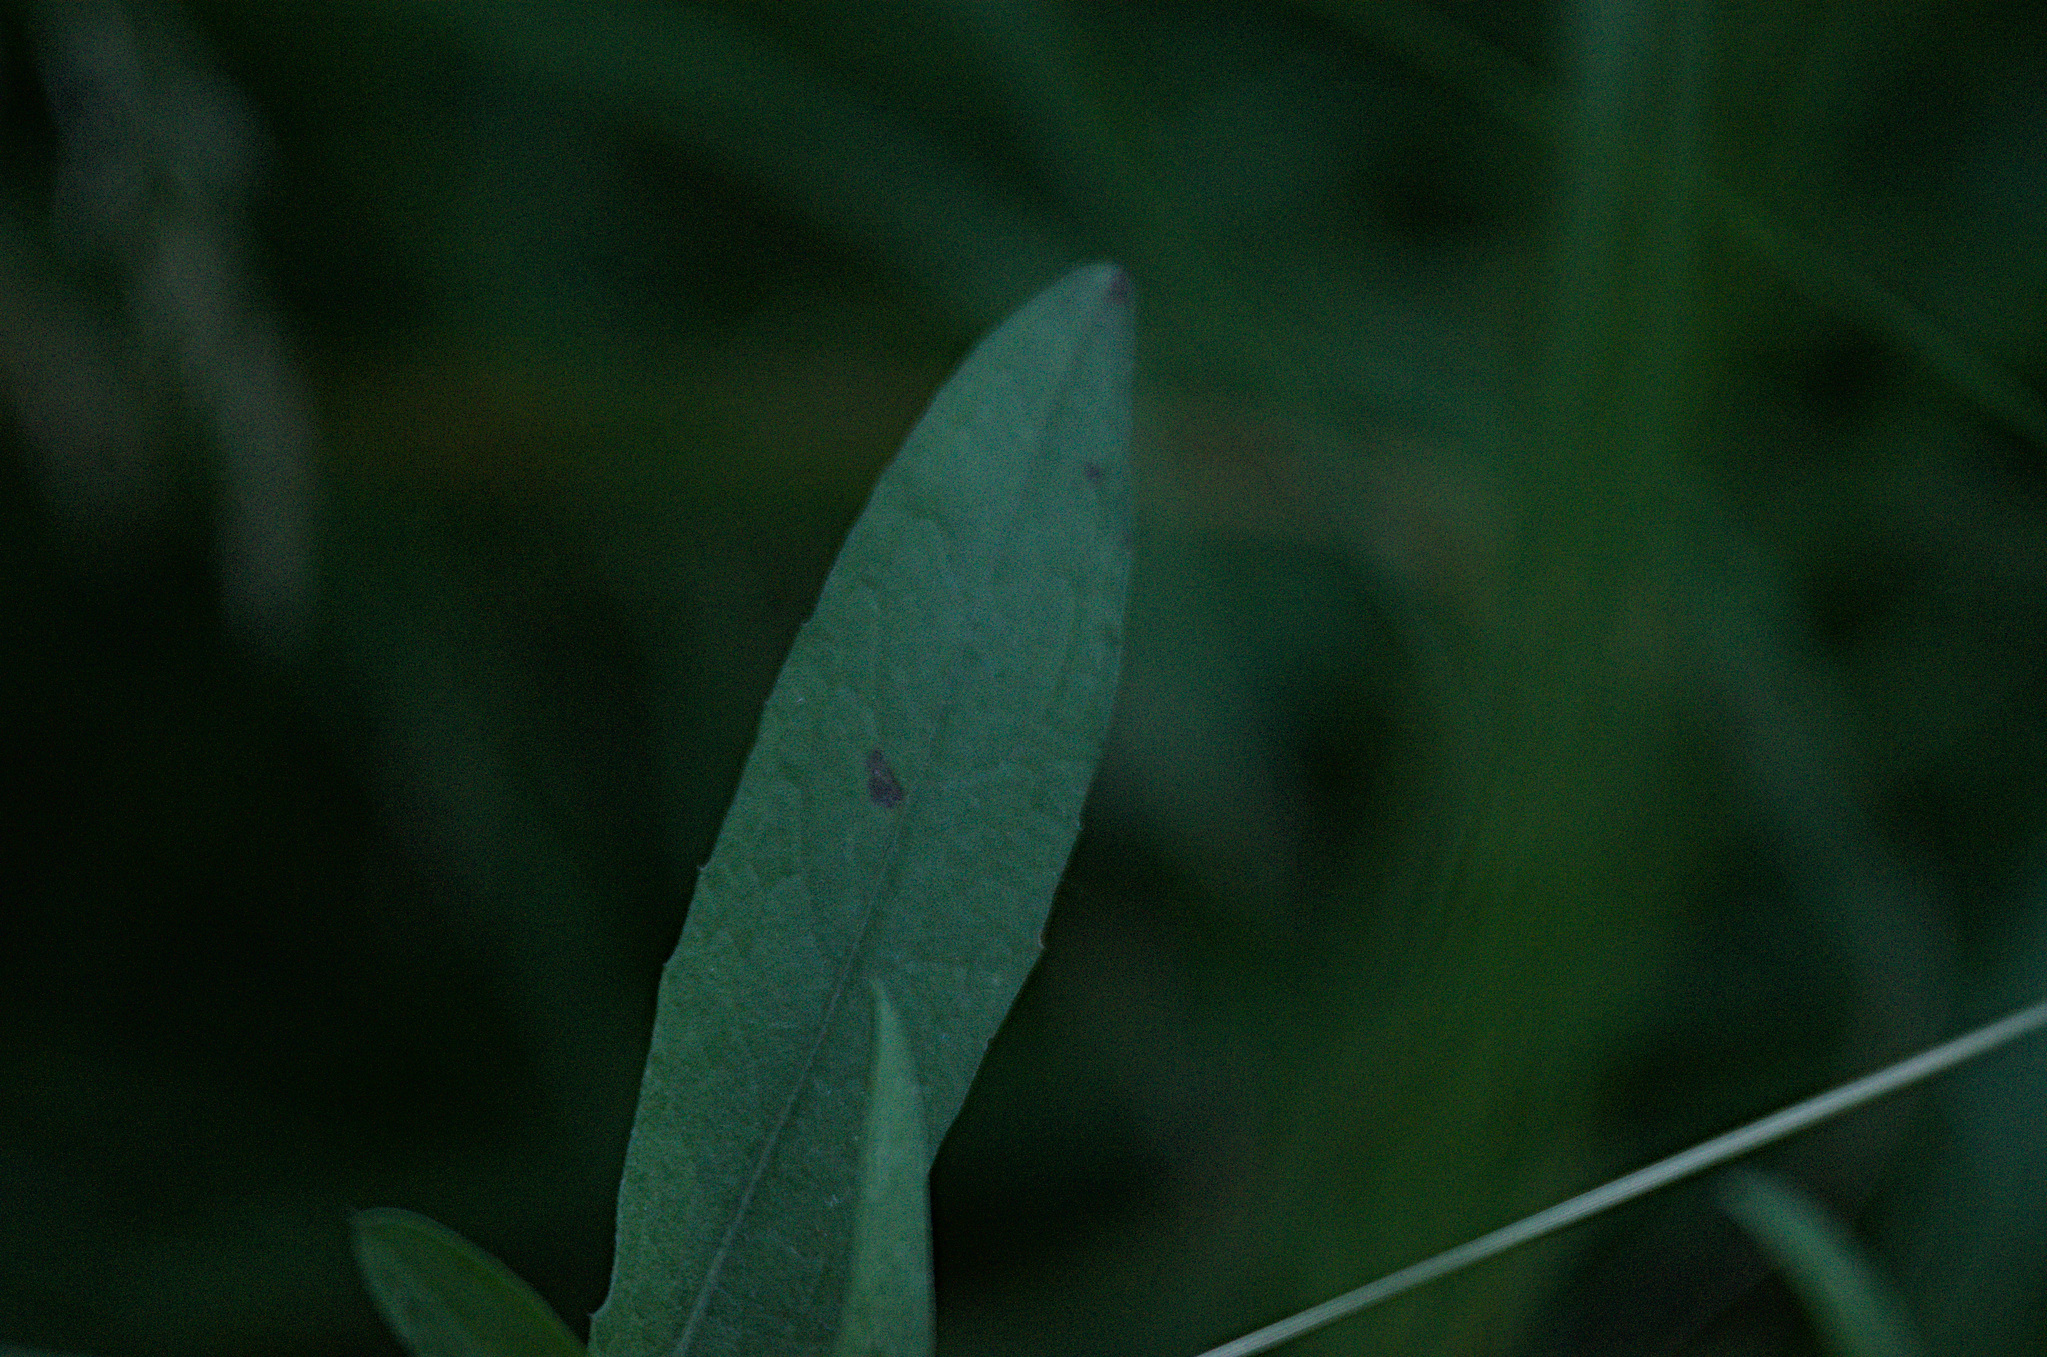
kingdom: Plantae
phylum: Tracheophyta
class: Magnoliopsida
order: Caryophyllales
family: Caryophyllaceae
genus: Silene
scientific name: Silene latifolia
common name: White campion
